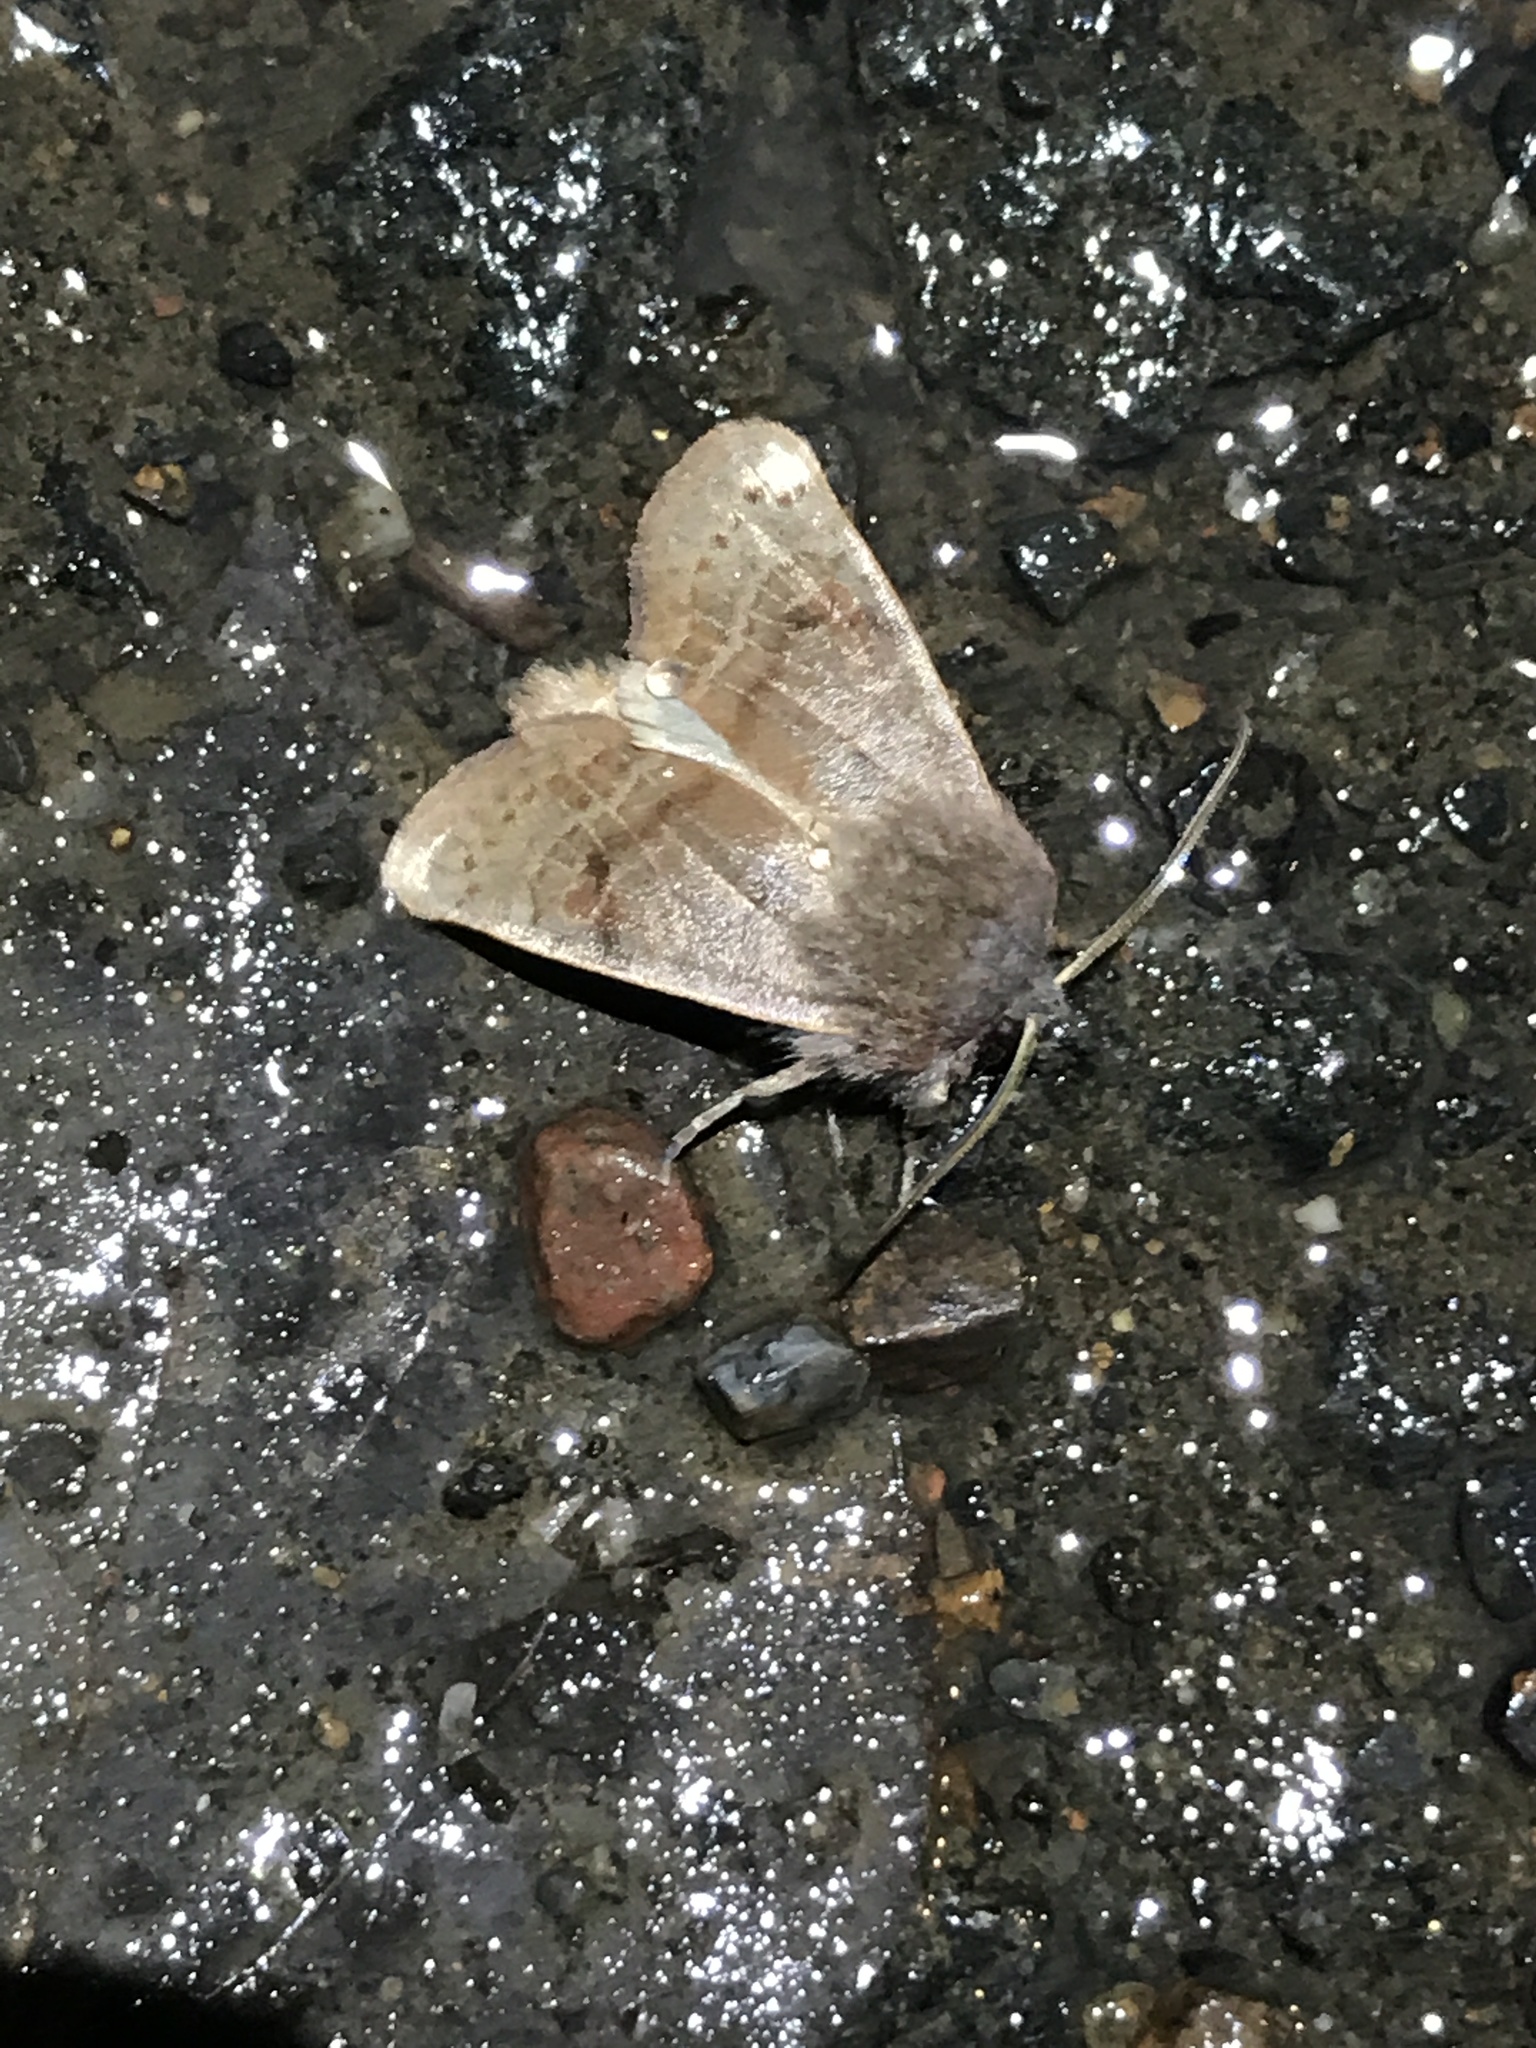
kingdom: Animalia
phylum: Arthropoda
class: Insecta
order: Lepidoptera
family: Noctuidae
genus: Homoglaea
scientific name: Homoglaea hircina
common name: Goat sallow
